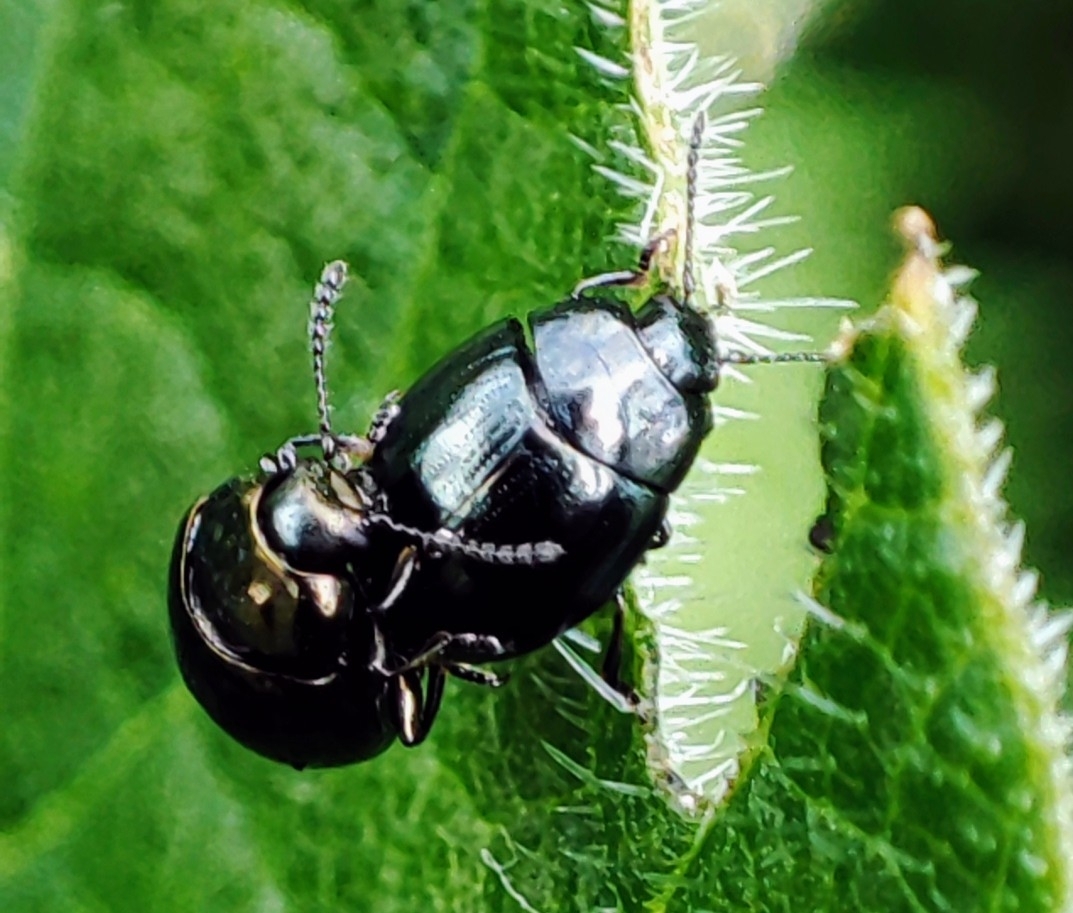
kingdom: Animalia
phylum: Arthropoda
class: Insecta
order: Coleoptera
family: Chrysomelidae
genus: Phaedon
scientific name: Phaedon tumidulus
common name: Celery leaf beetle
